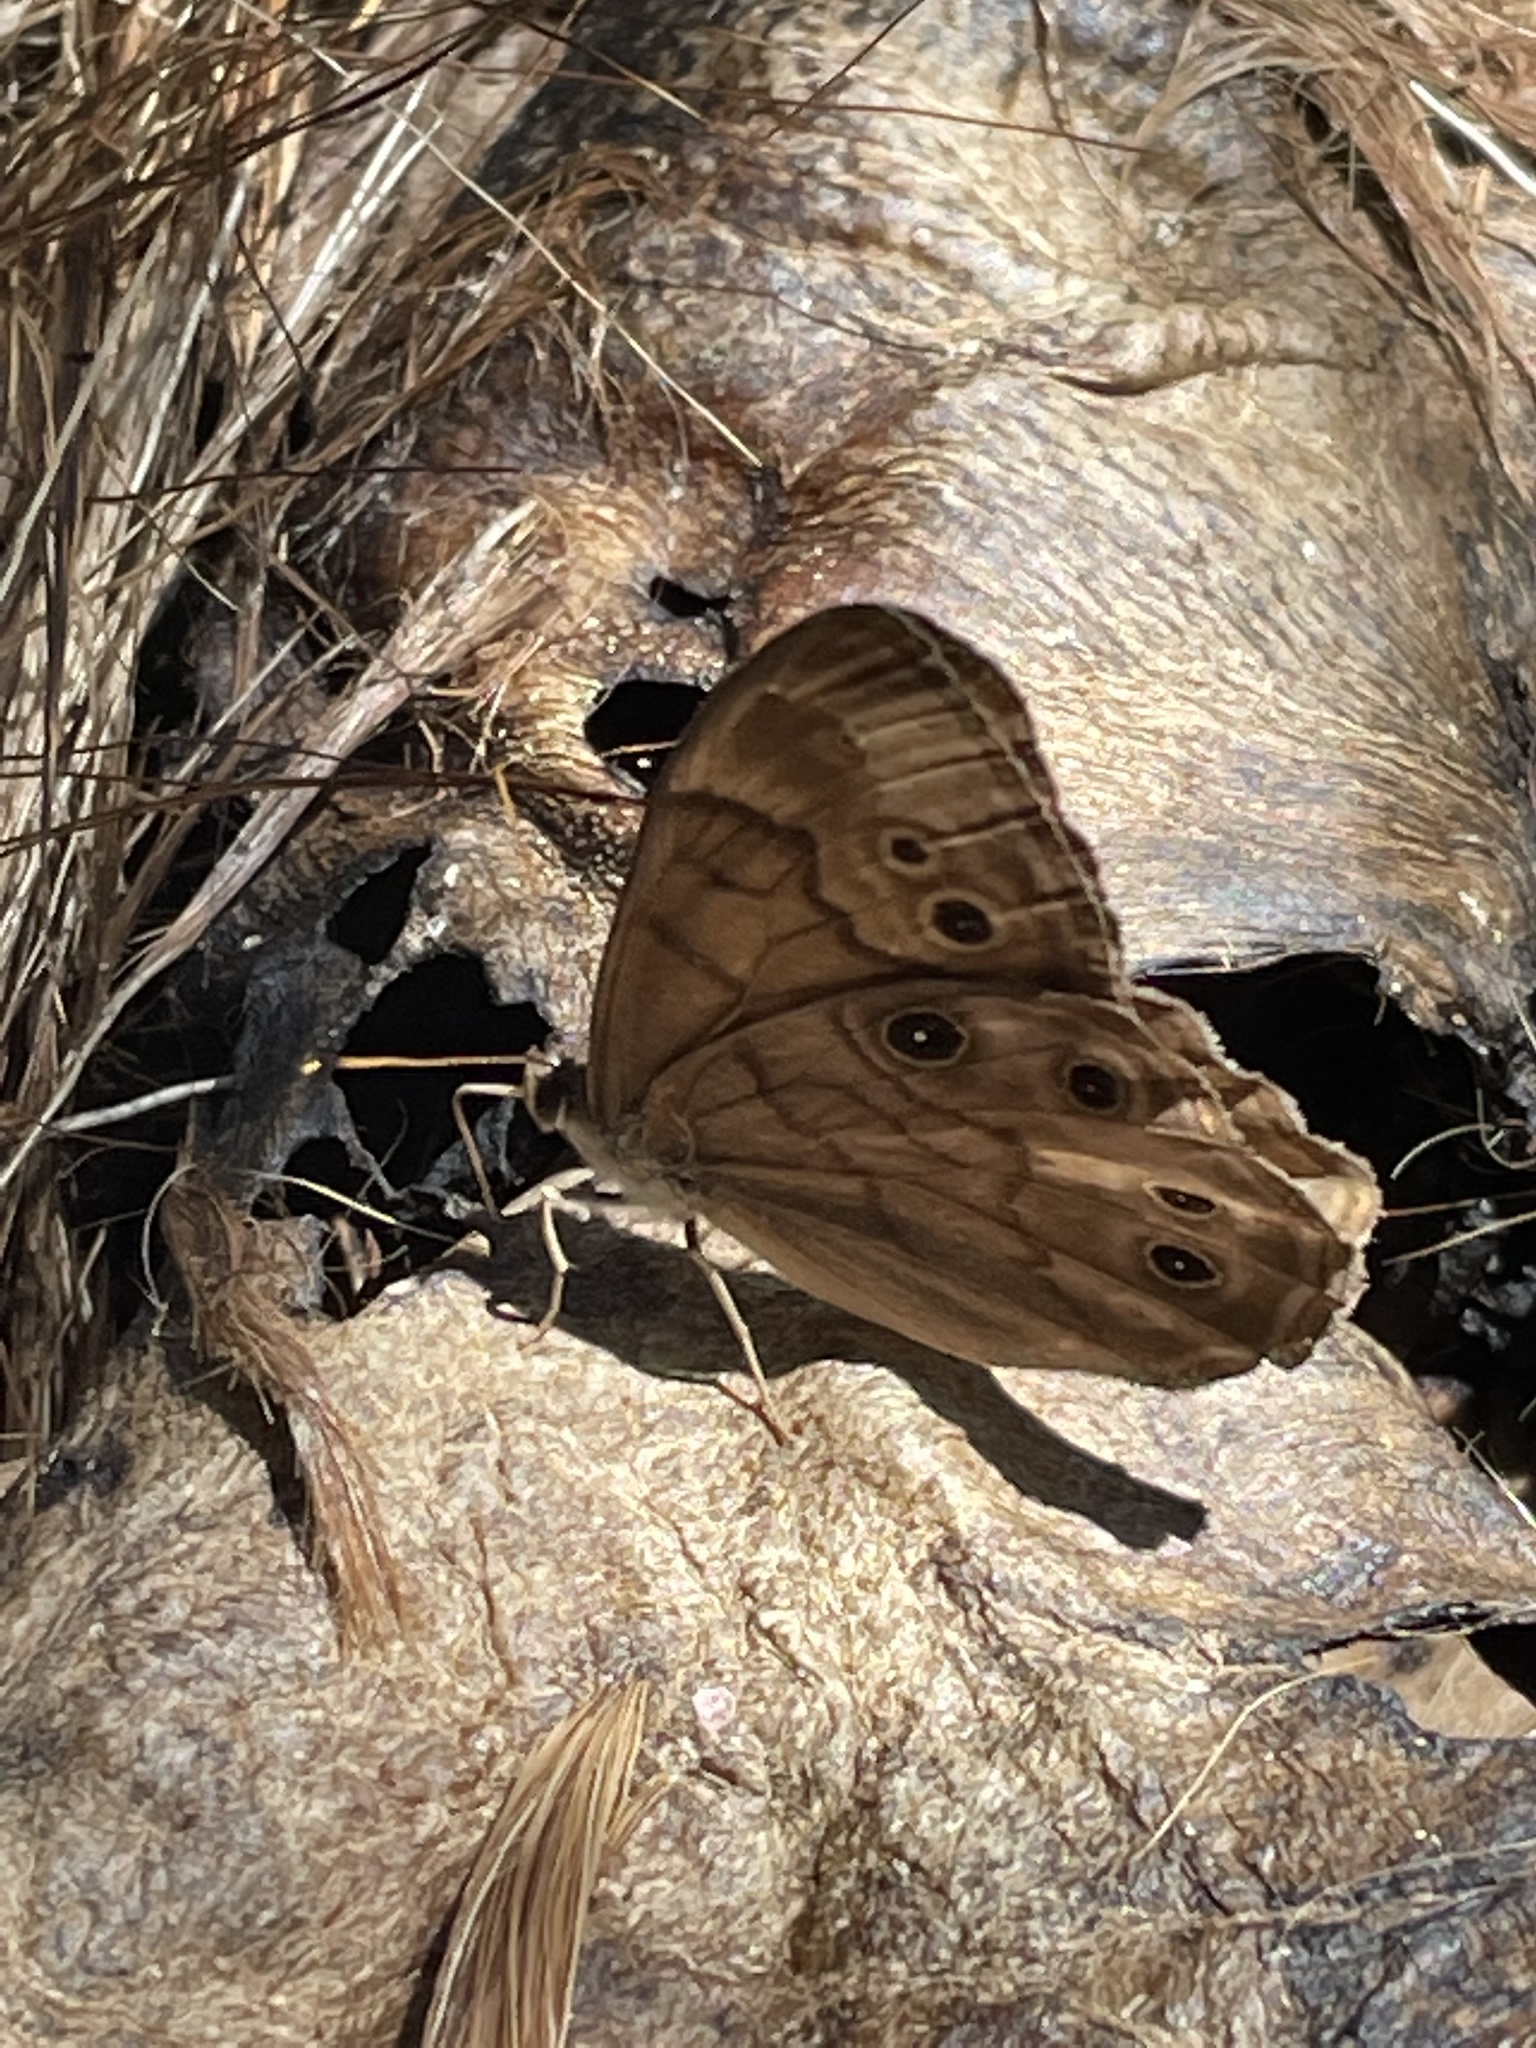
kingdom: Animalia
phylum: Arthropoda
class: Insecta
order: Lepidoptera
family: Nymphalidae
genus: Lethe
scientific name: Lethe anthedon
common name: Northern pearly-eye
